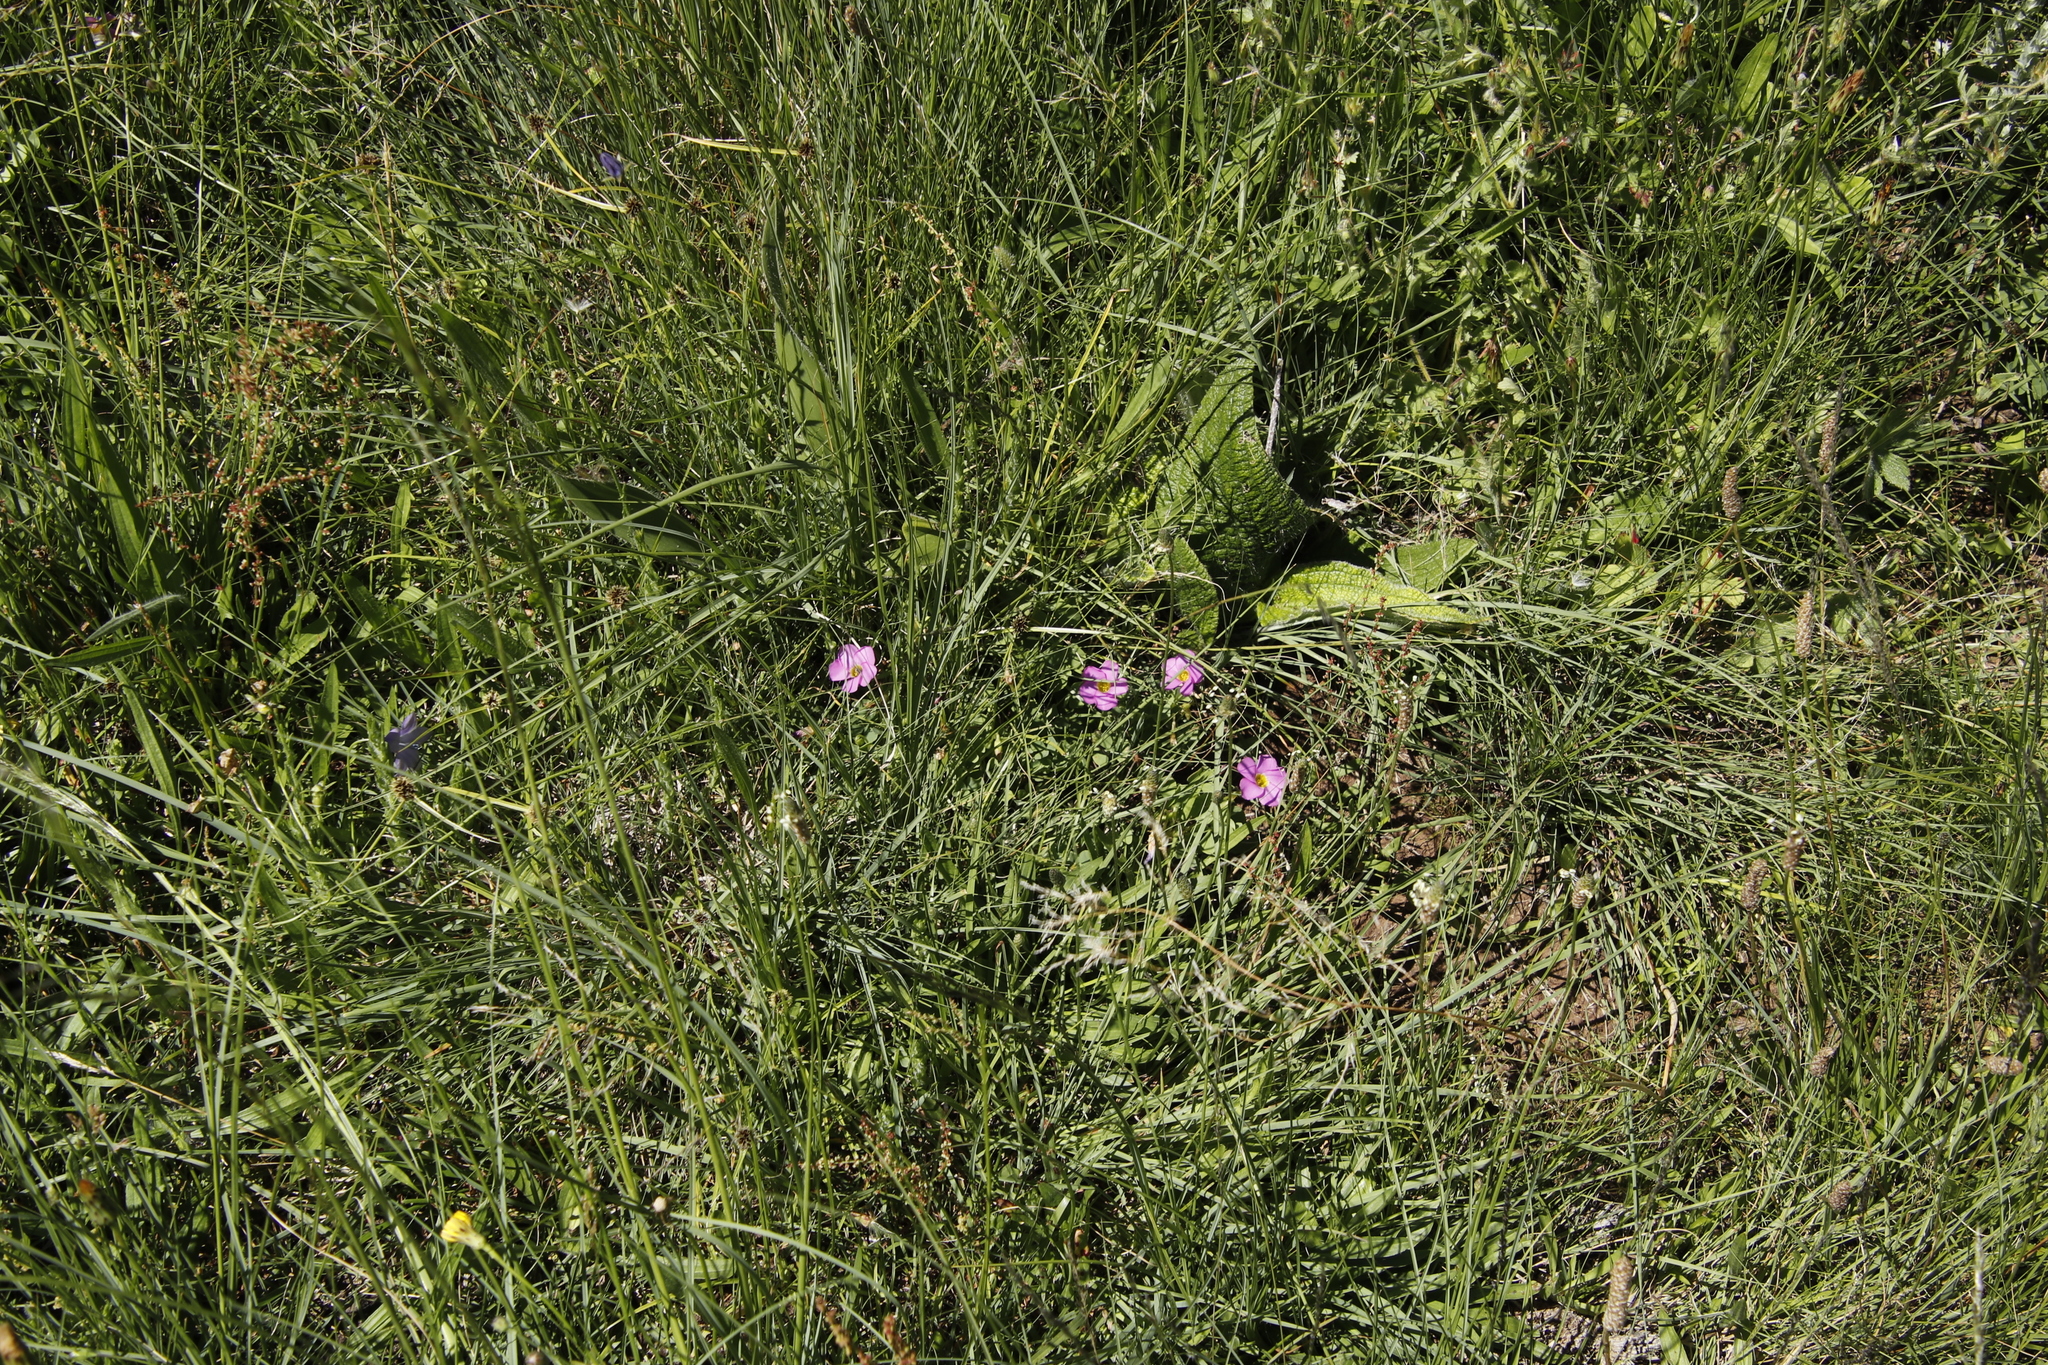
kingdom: Plantae
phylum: Tracheophyta
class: Magnoliopsida
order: Oxalidales
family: Oxalidaceae
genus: Oxalis
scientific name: Oxalis obliquifolia
